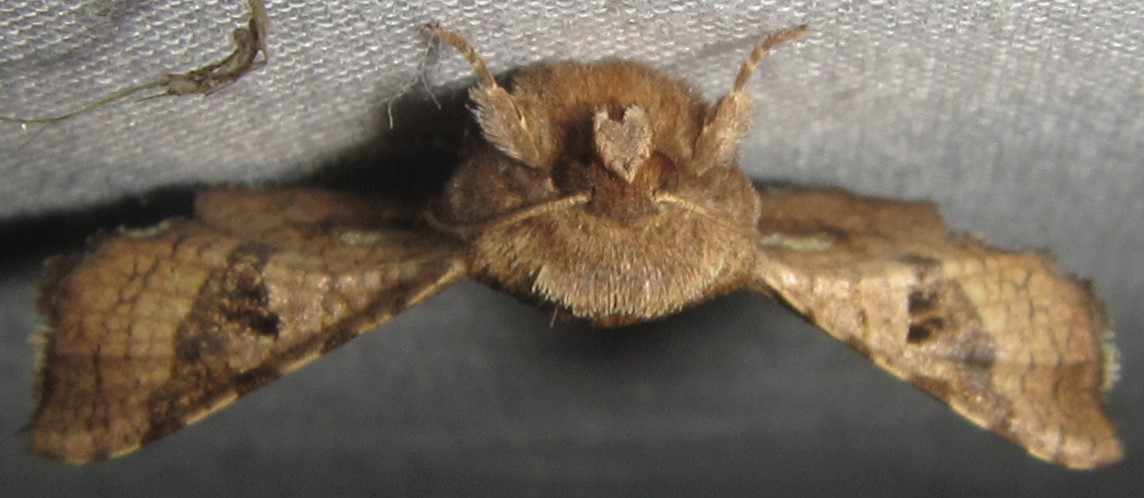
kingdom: Animalia
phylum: Arthropoda
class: Insecta
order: Lepidoptera
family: Thyrididae
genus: Dysodia
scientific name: Dysodia constellata
